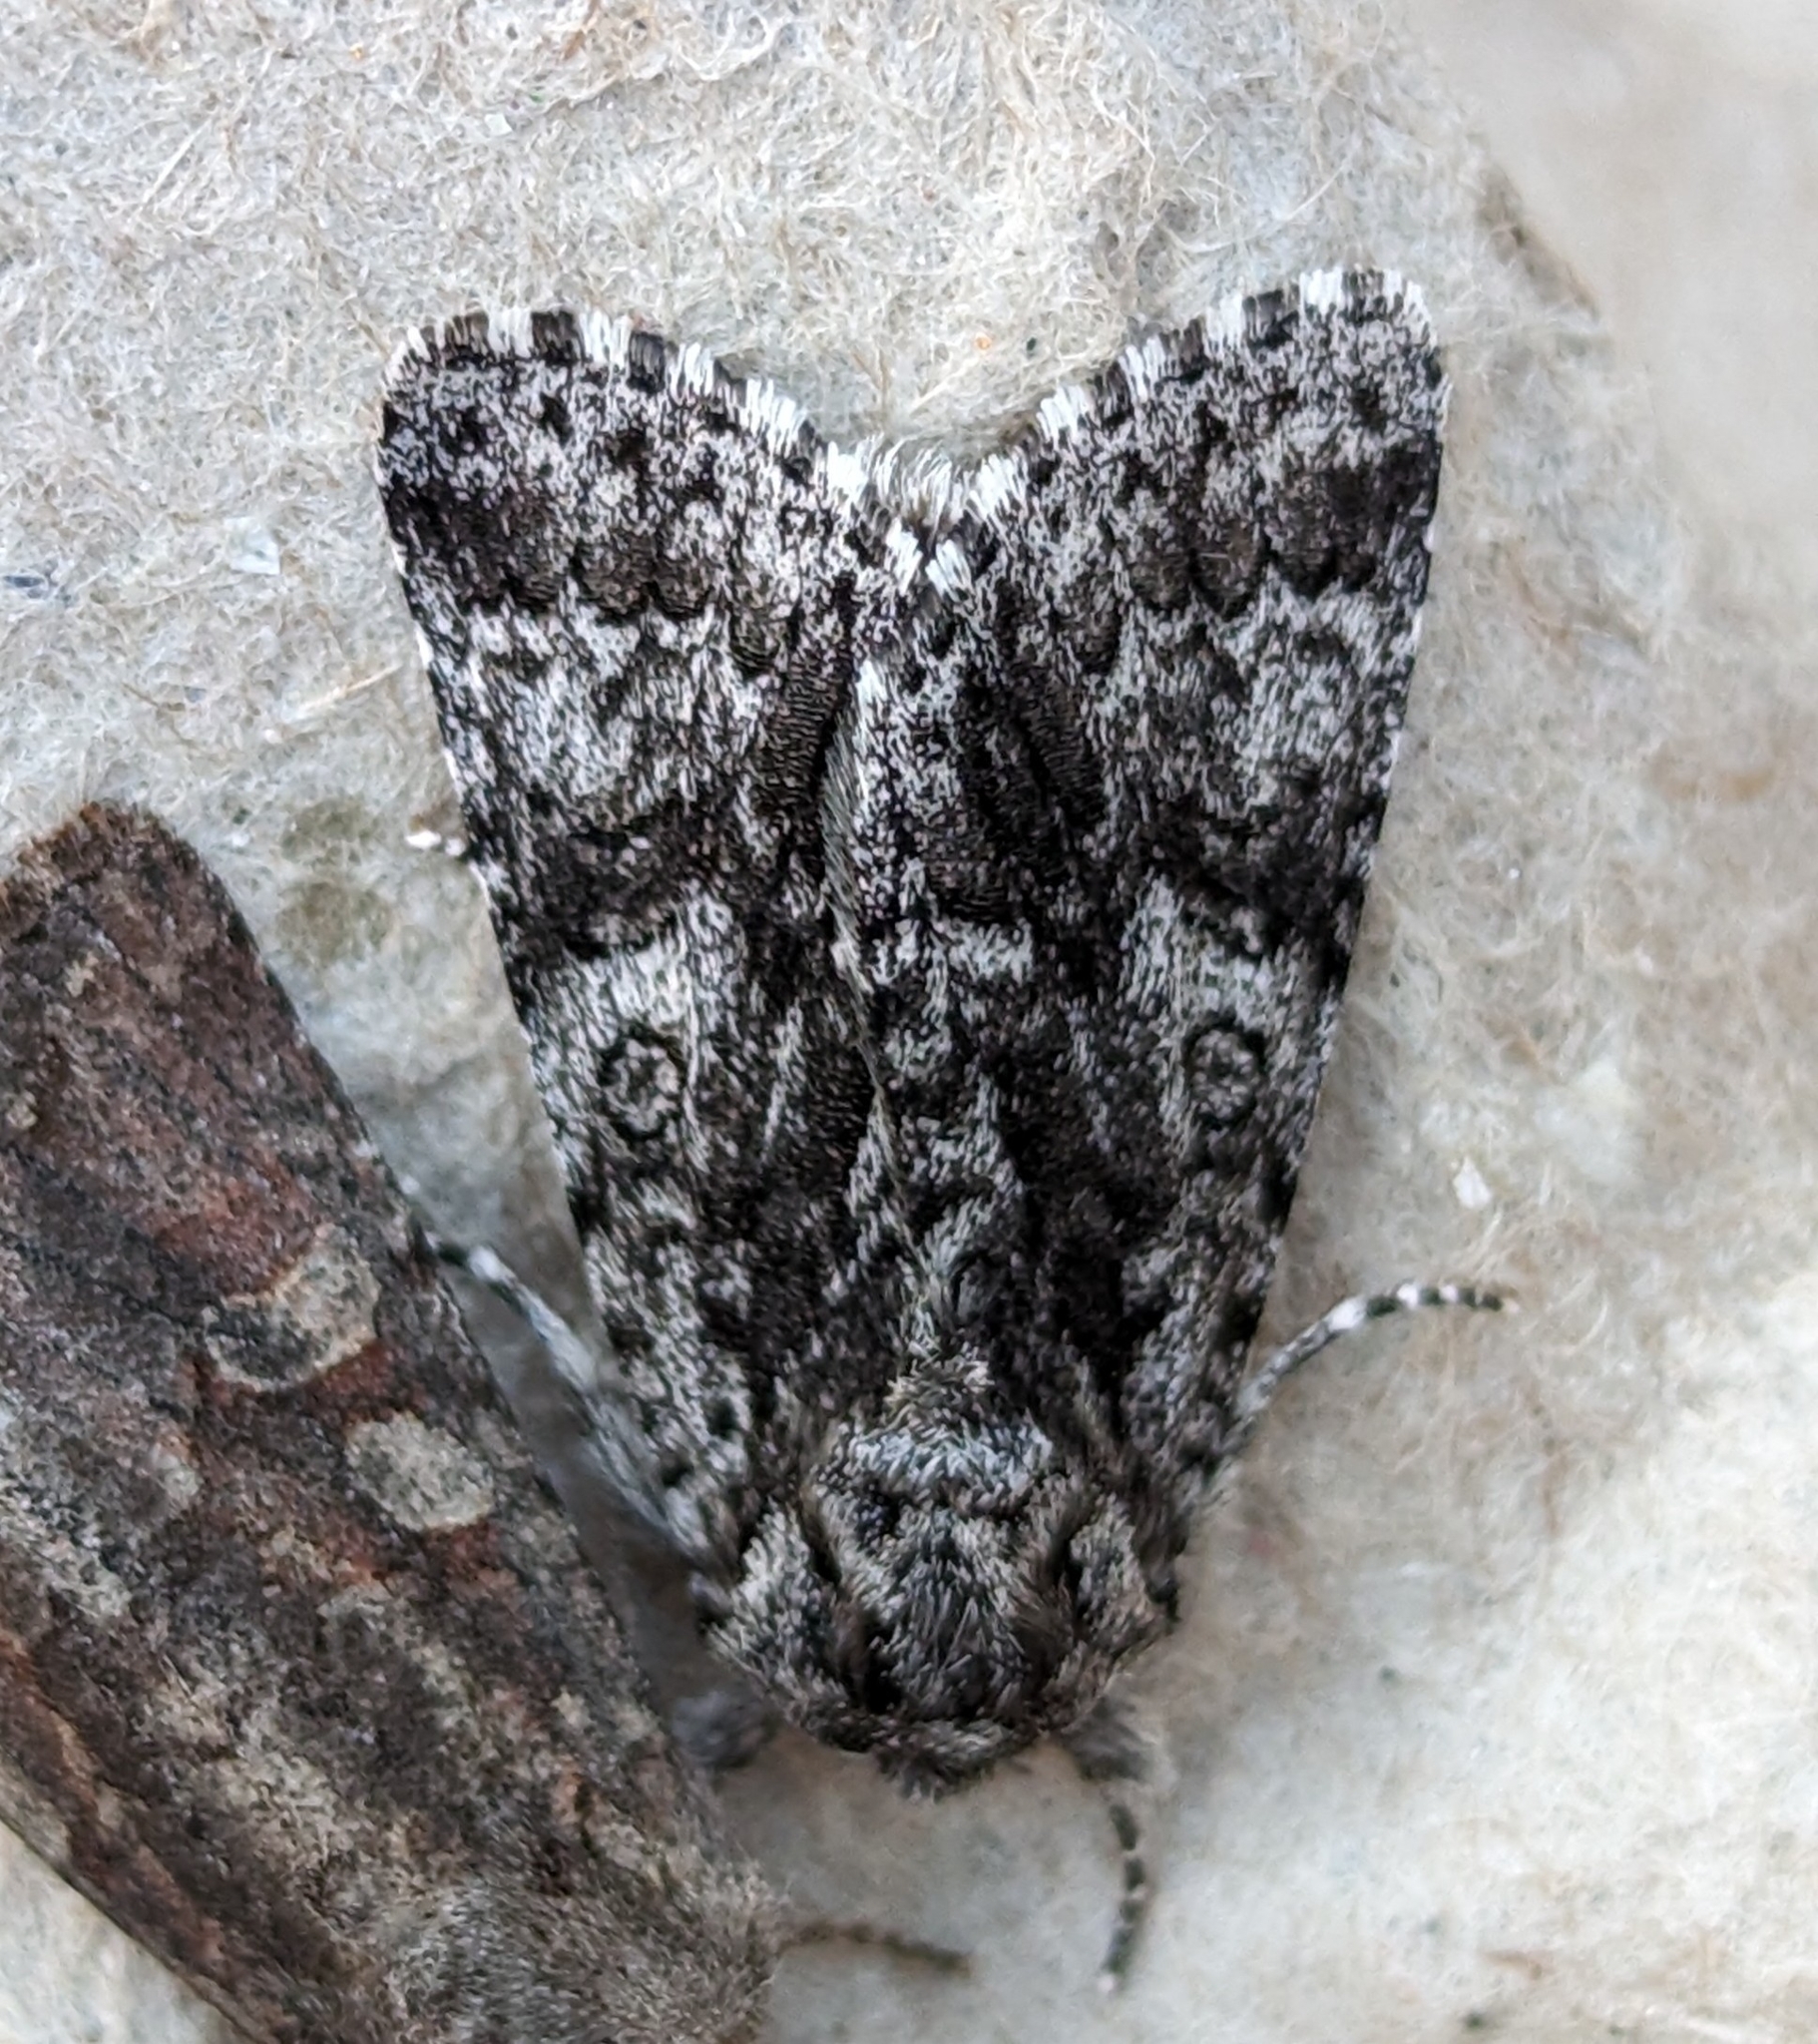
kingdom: Animalia
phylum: Arthropoda
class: Insecta
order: Lepidoptera
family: Noctuidae
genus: Acronicta
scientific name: Acronicta impressa
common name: Impressed dagger
